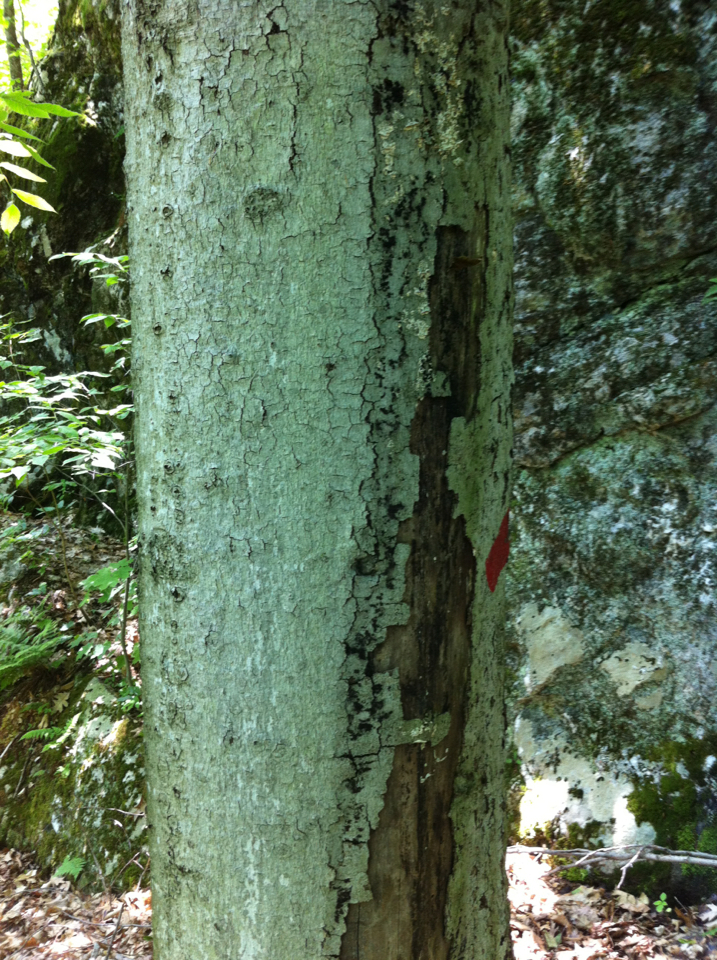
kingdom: Plantae
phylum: Tracheophyta
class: Magnoliopsida
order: Fagales
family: Fagaceae
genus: Fagus
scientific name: Fagus grandifolia
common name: American beech
